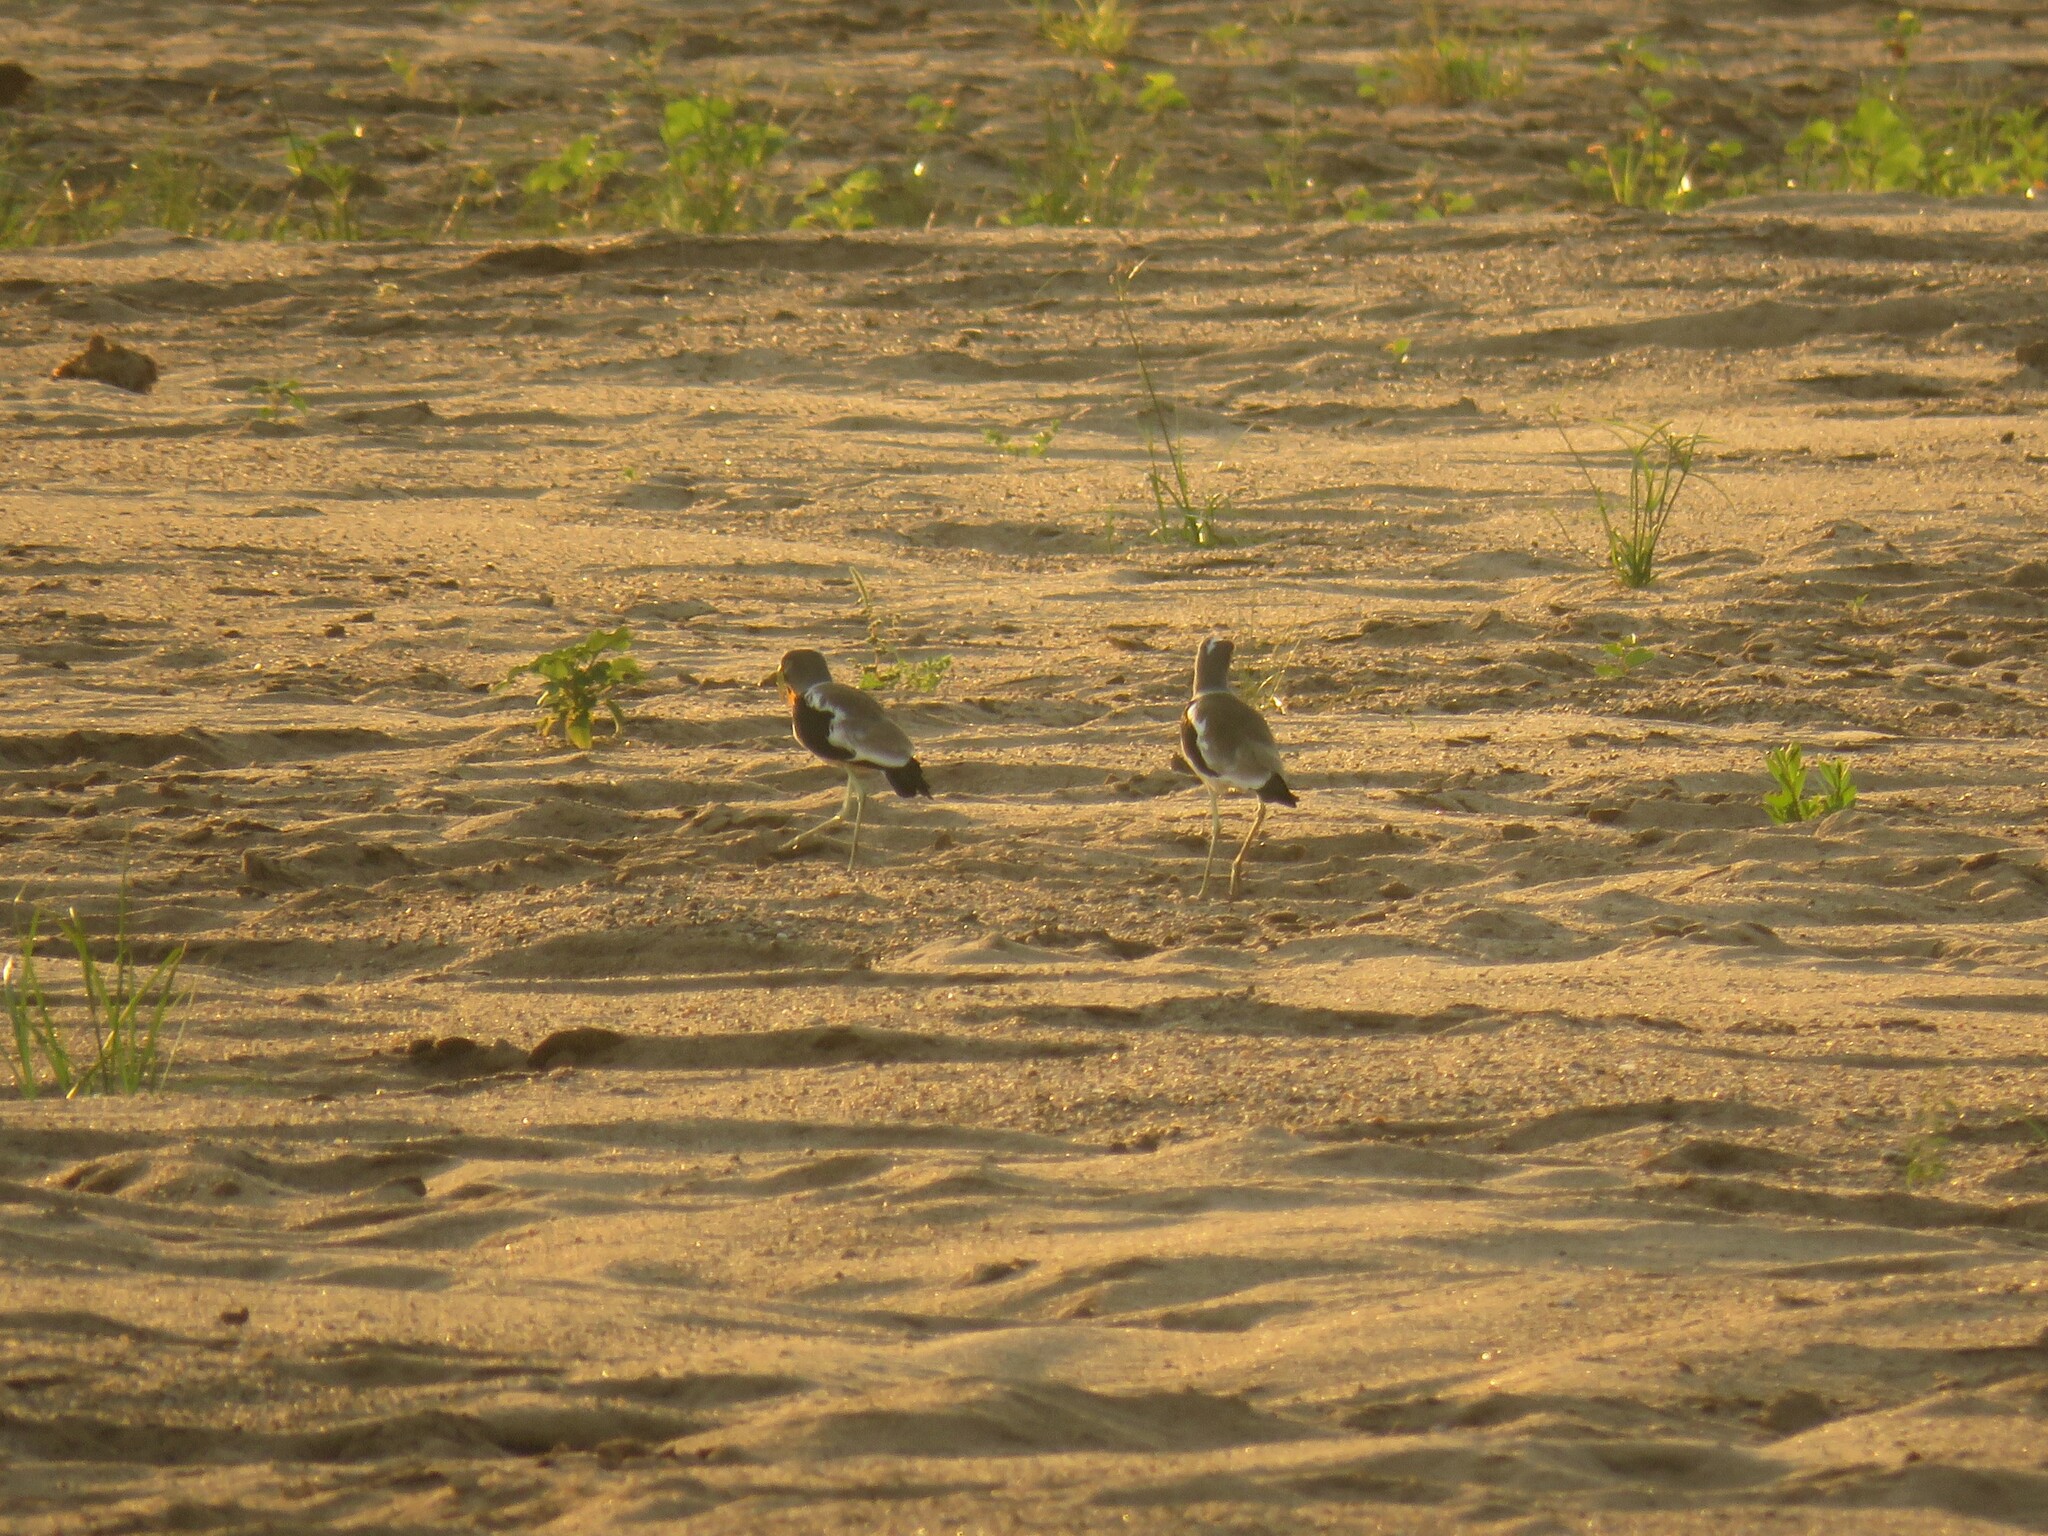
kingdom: Animalia
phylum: Chordata
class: Aves
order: Charadriiformes
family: Charadriidae
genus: Vanellus
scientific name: Vanellus albiceps
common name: White-crowned lapwing
